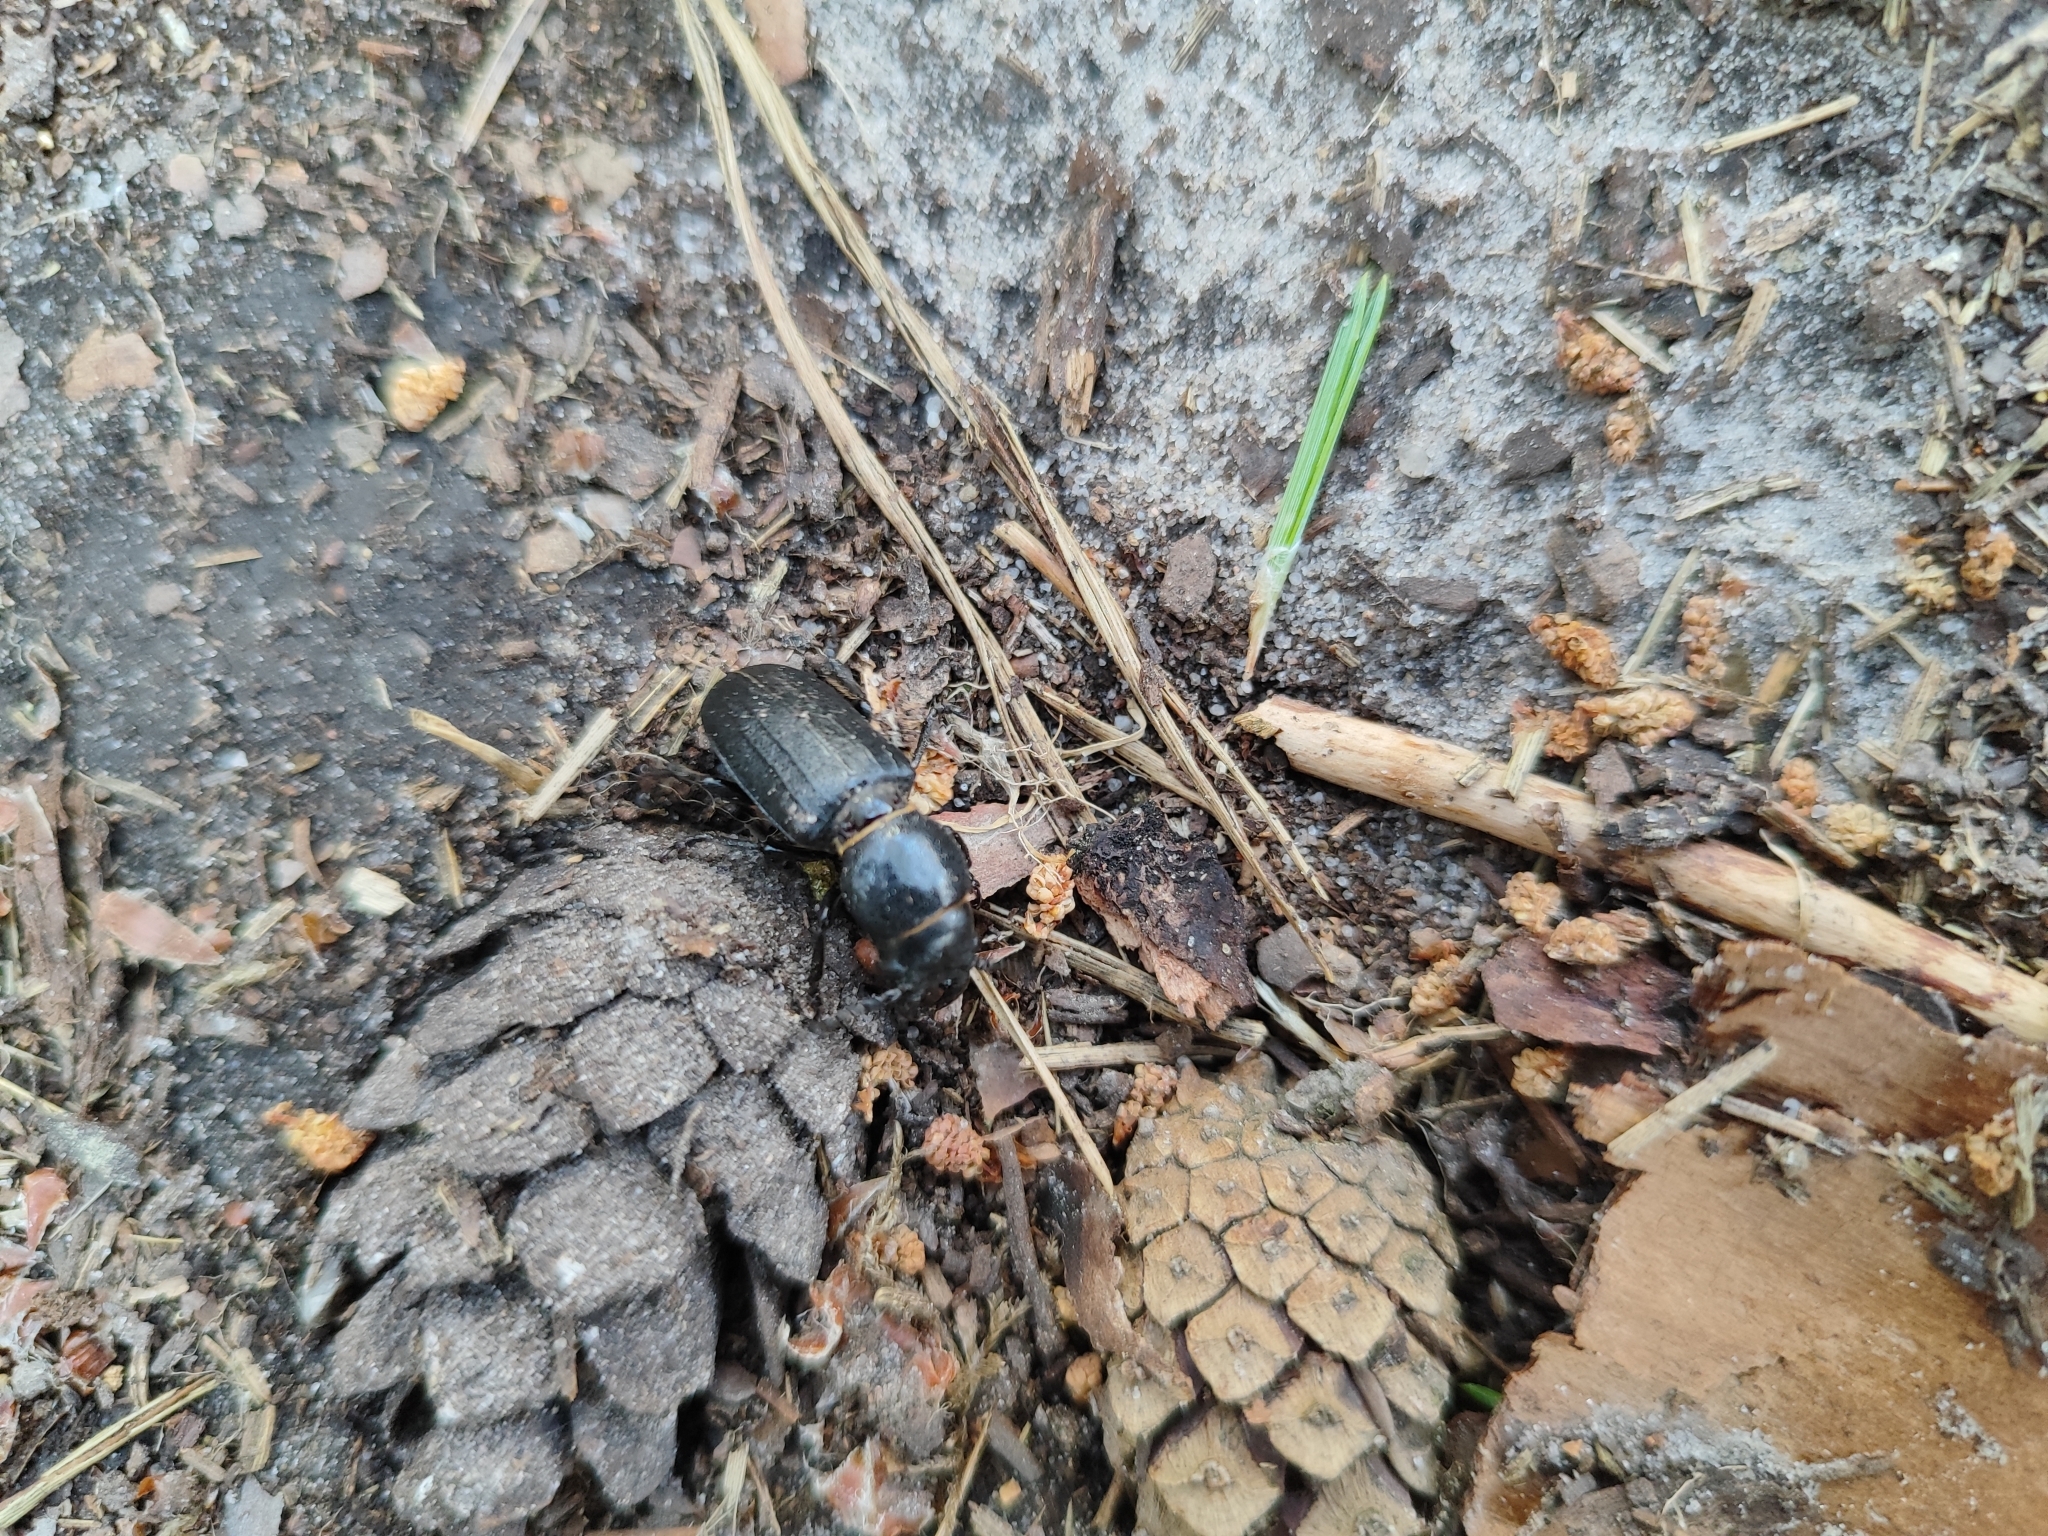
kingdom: Animalia
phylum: Arthropoda
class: Insecta
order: Coleoptera
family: Cerambycidae
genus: Spondylis
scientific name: Spondylis buprestoides
